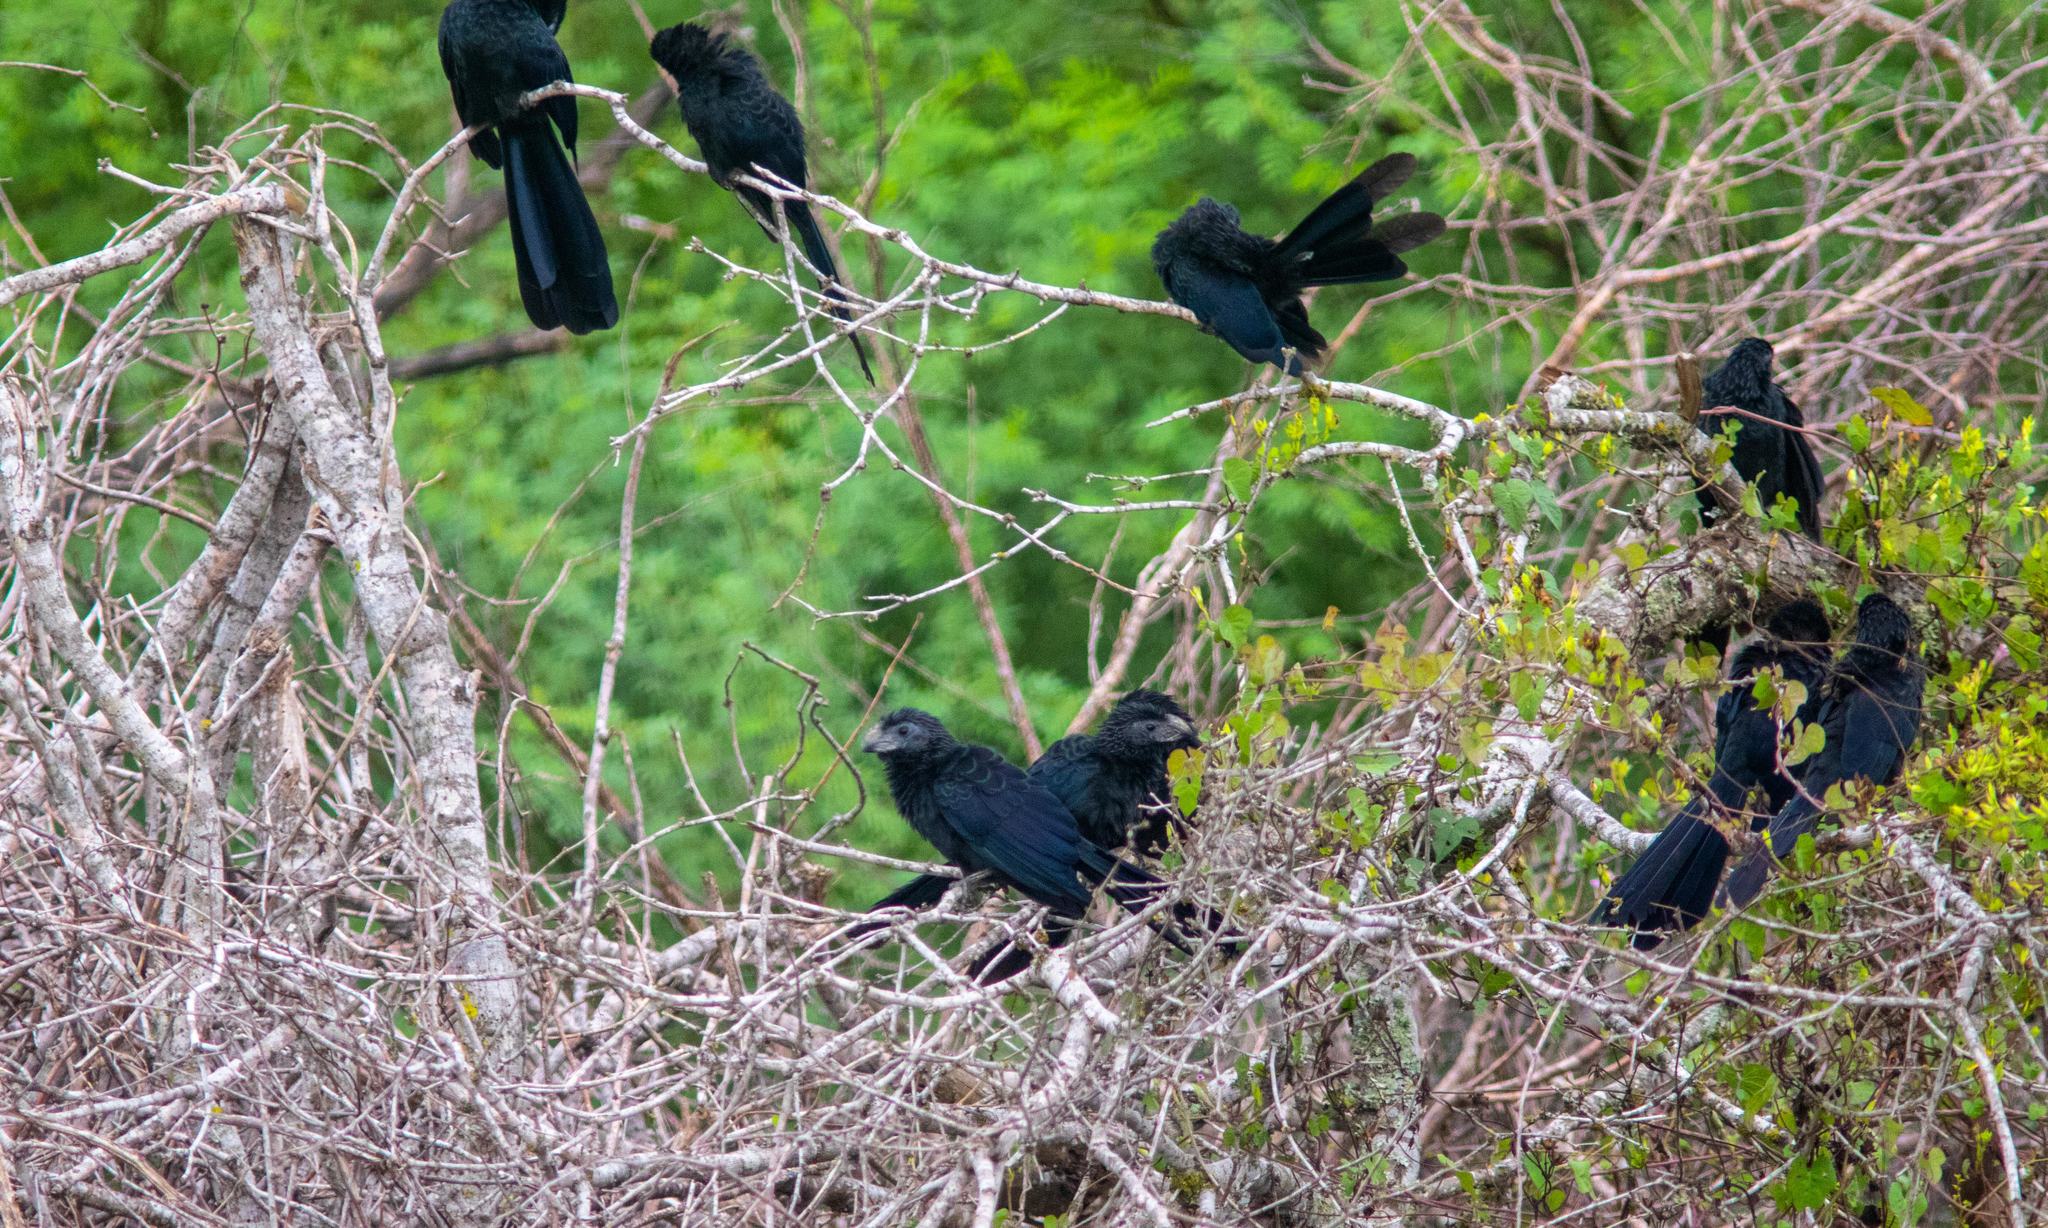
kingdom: Animalia
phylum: Chordata
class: Aves
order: Cuculiformes
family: Cuculidae
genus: Crotophaga
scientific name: Crotophaga sulcirostris
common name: Groove-billed ani
